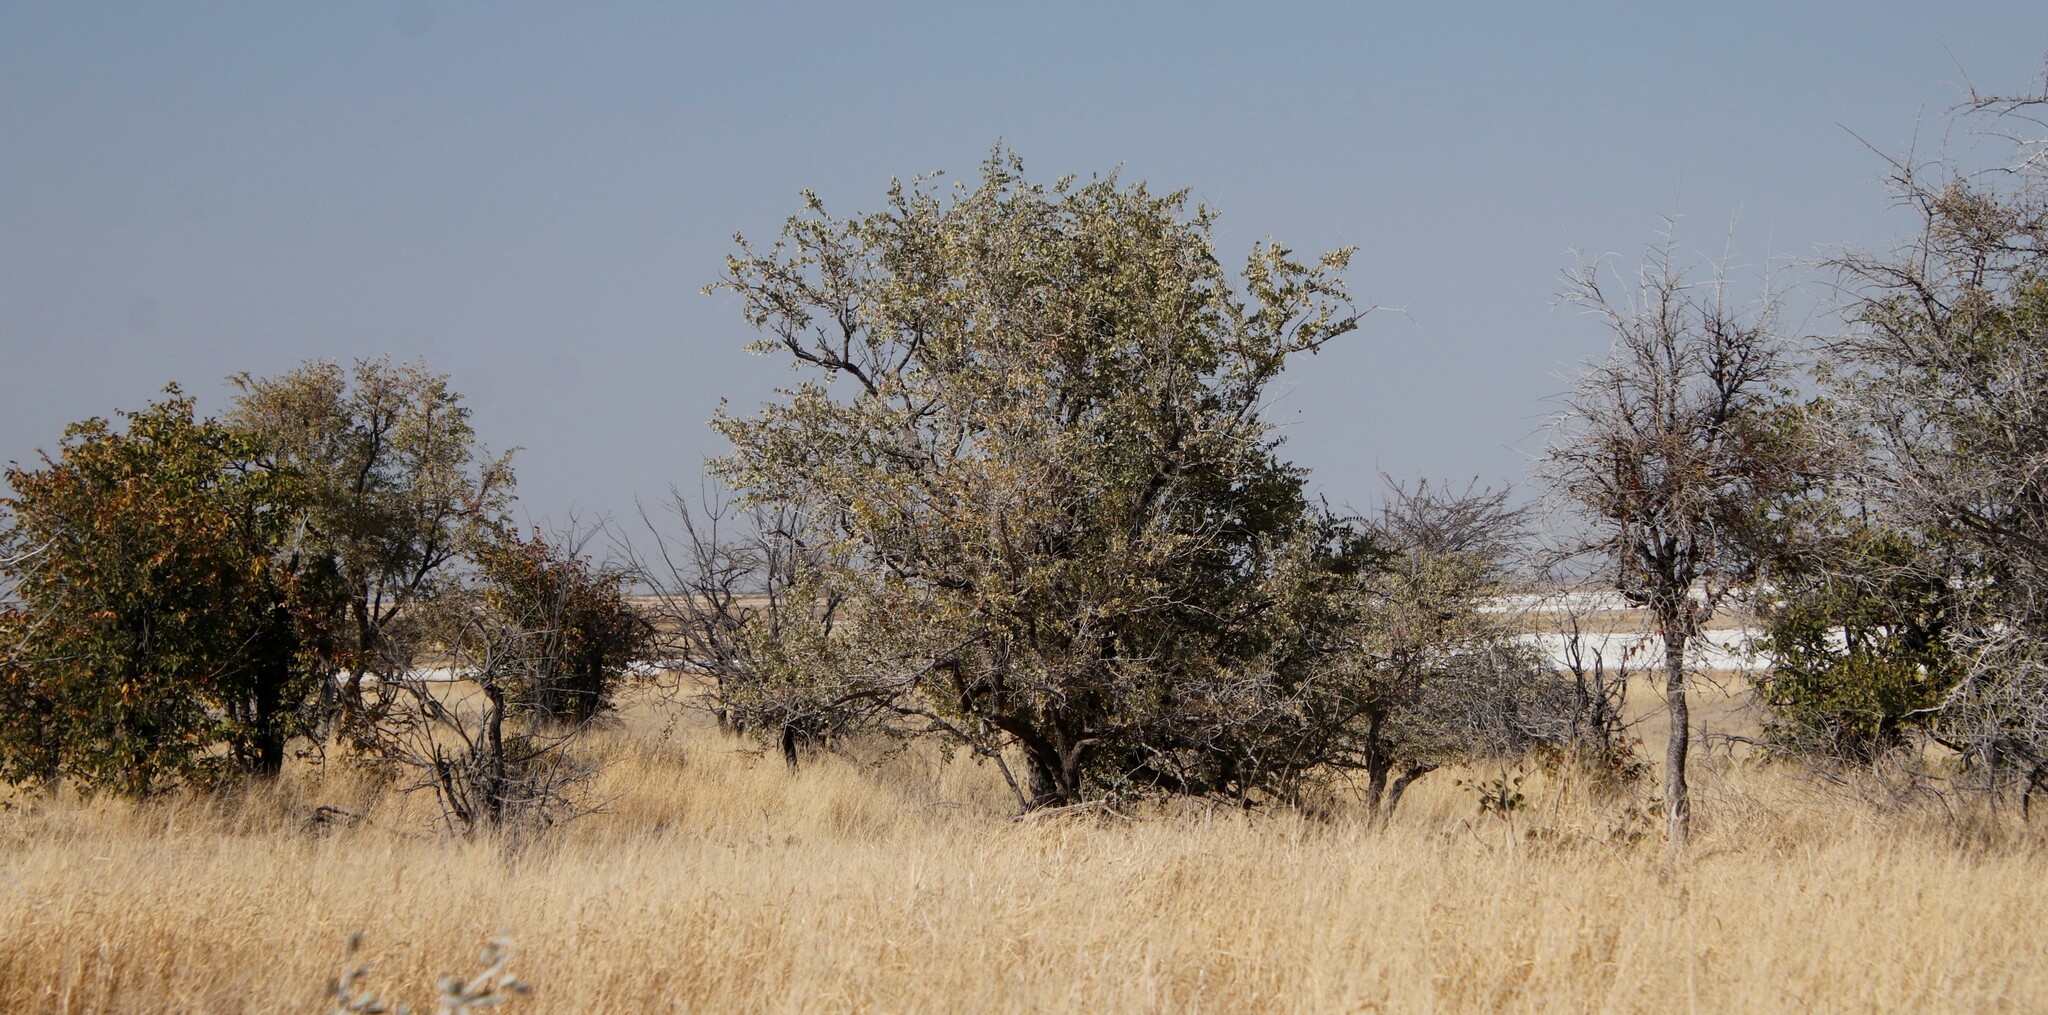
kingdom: Plantae
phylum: Tracheophyta
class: Magnoliopsida
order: Fabales
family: Fabaceae
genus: Colophospermum
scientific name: Colophospermum mopane
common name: Mopane
